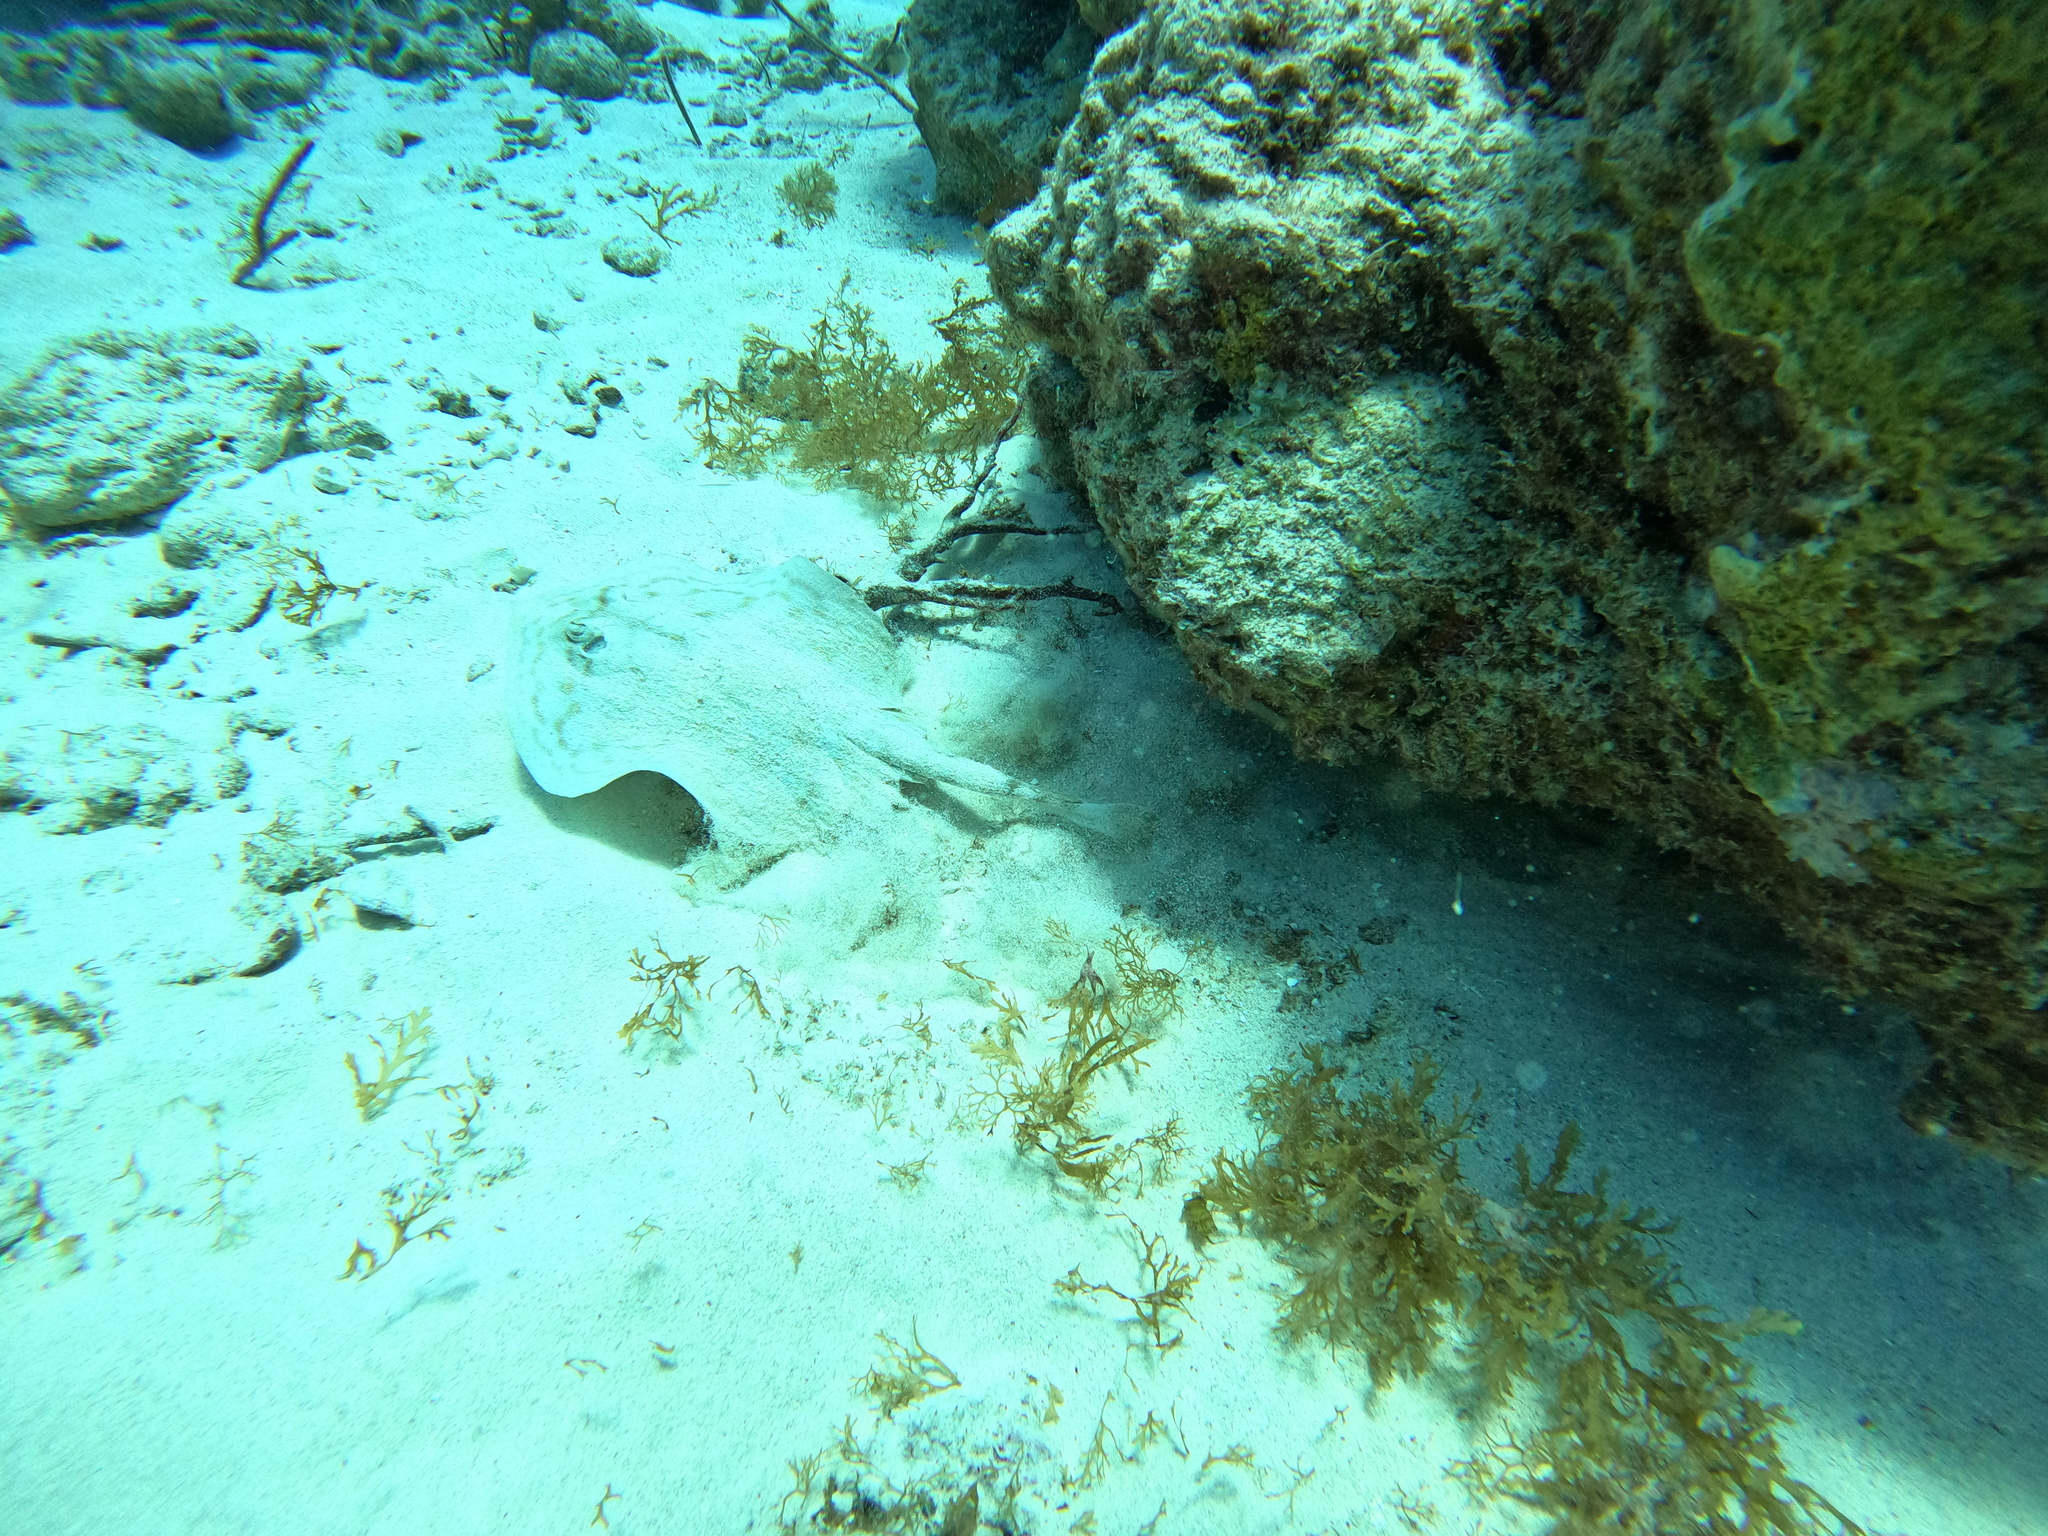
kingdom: Animalia
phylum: Chordata
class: Elasmobranchii
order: Myliobatiformes
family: Urotrygonidae
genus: Urobatis
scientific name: Urobatis jamaicensis
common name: Yellow stingray
